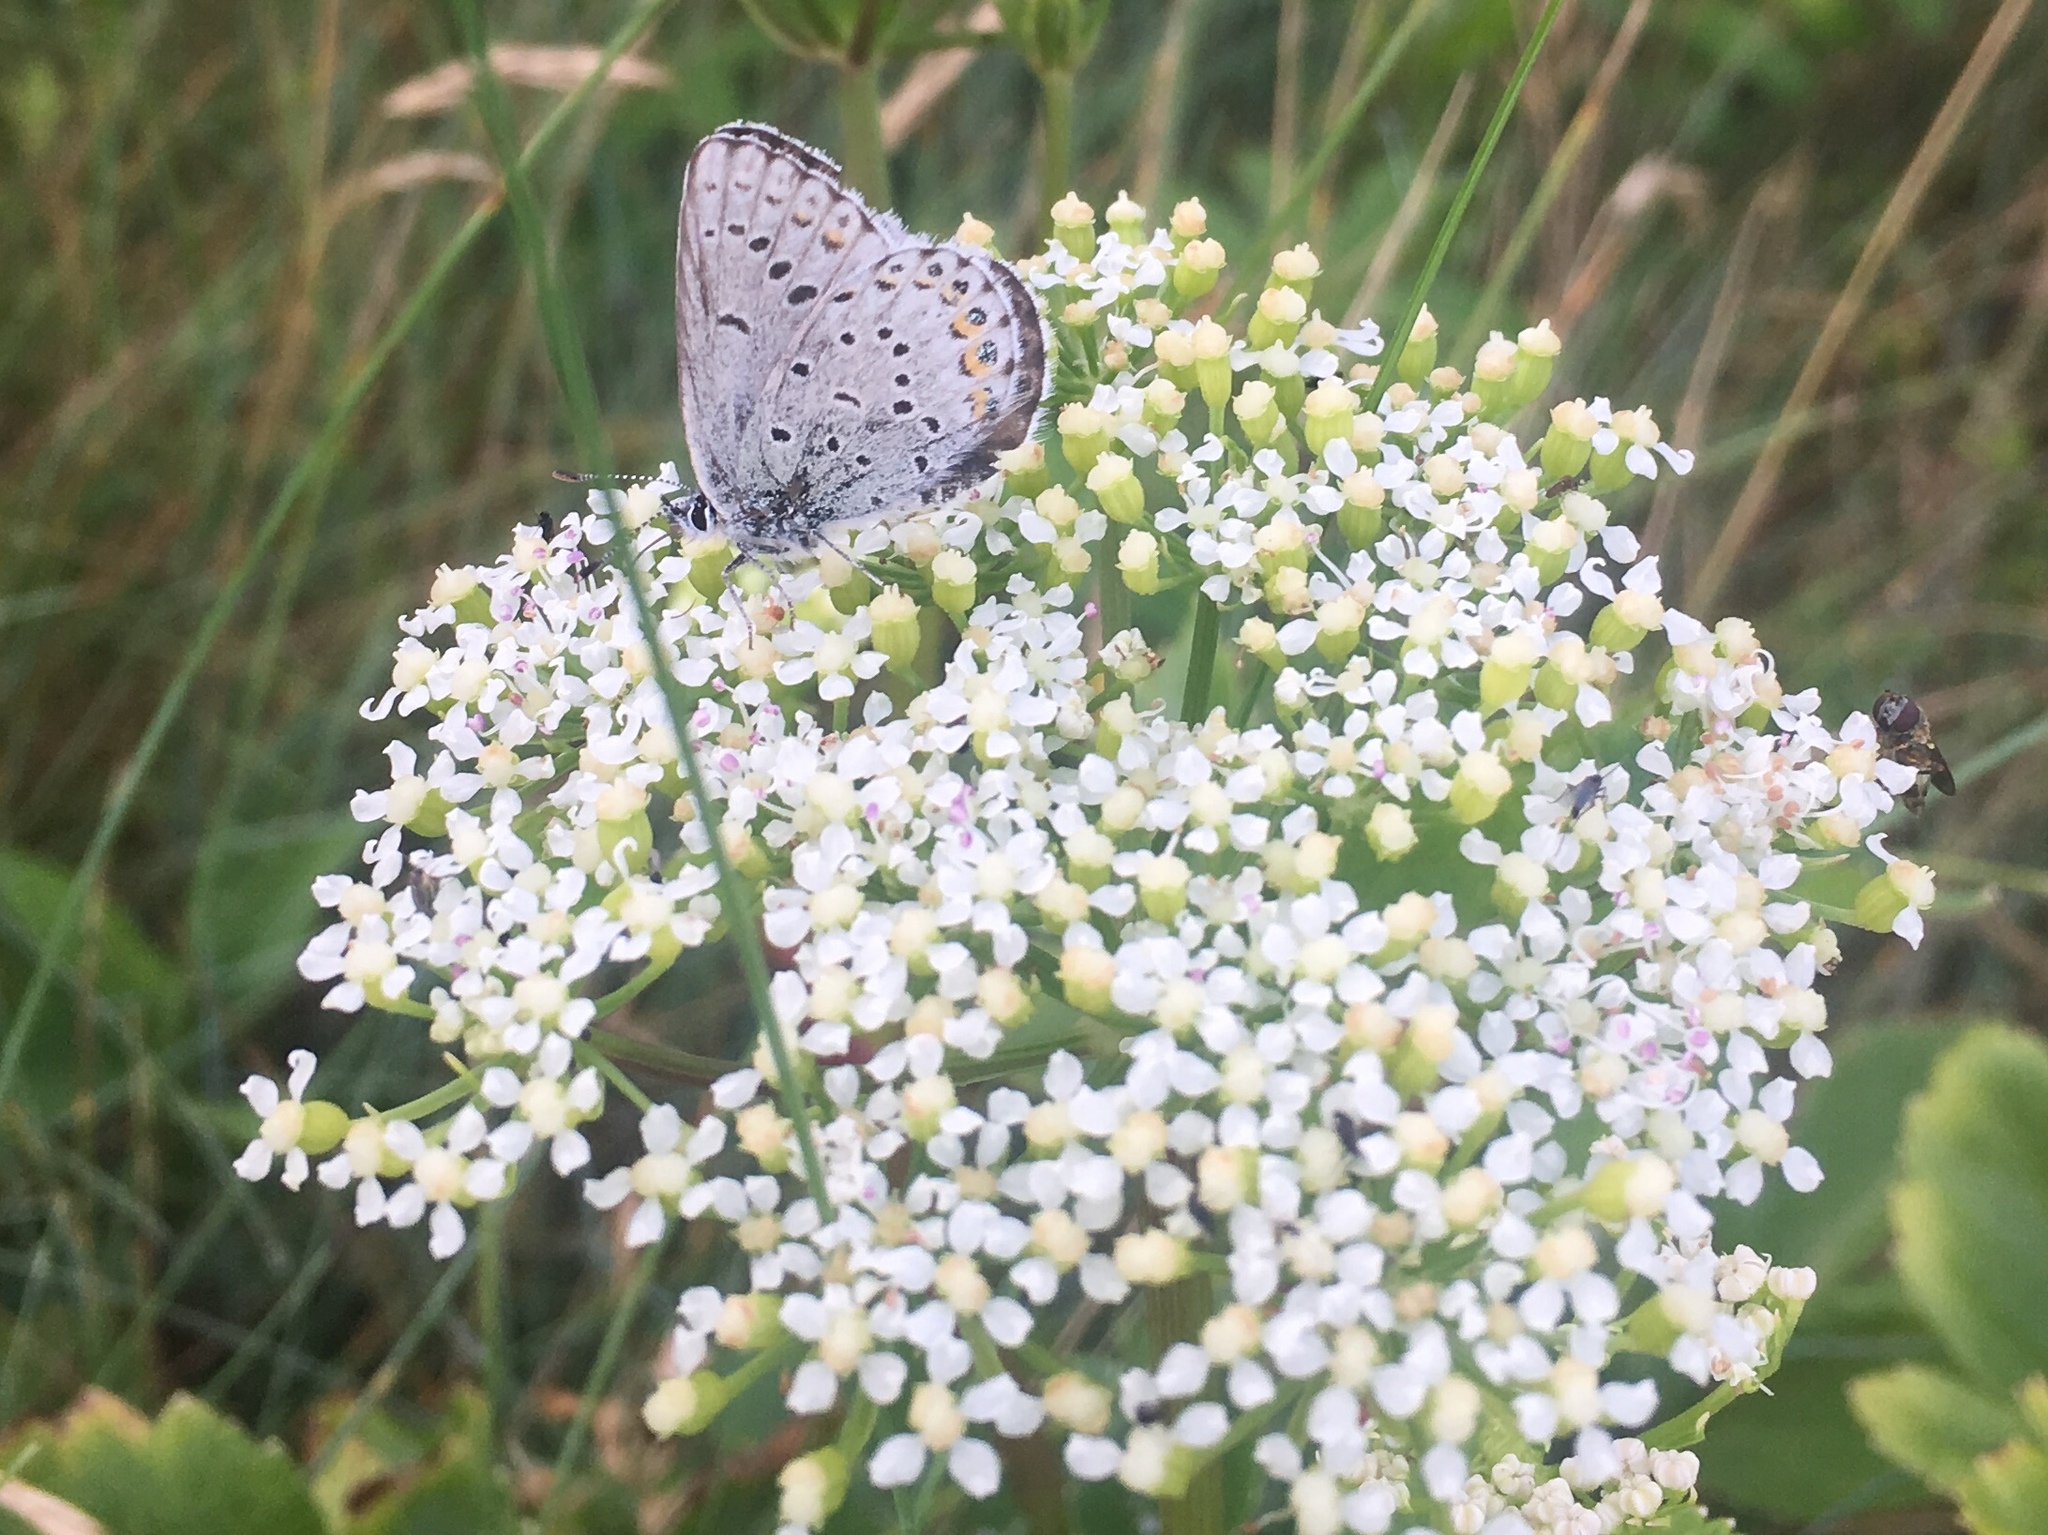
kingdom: Animalia
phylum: Arthropoda
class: Insecta
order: Lepidoptera
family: Lycaenidae
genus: Lycaeides
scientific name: Lycaeides idas
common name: Northern blue
